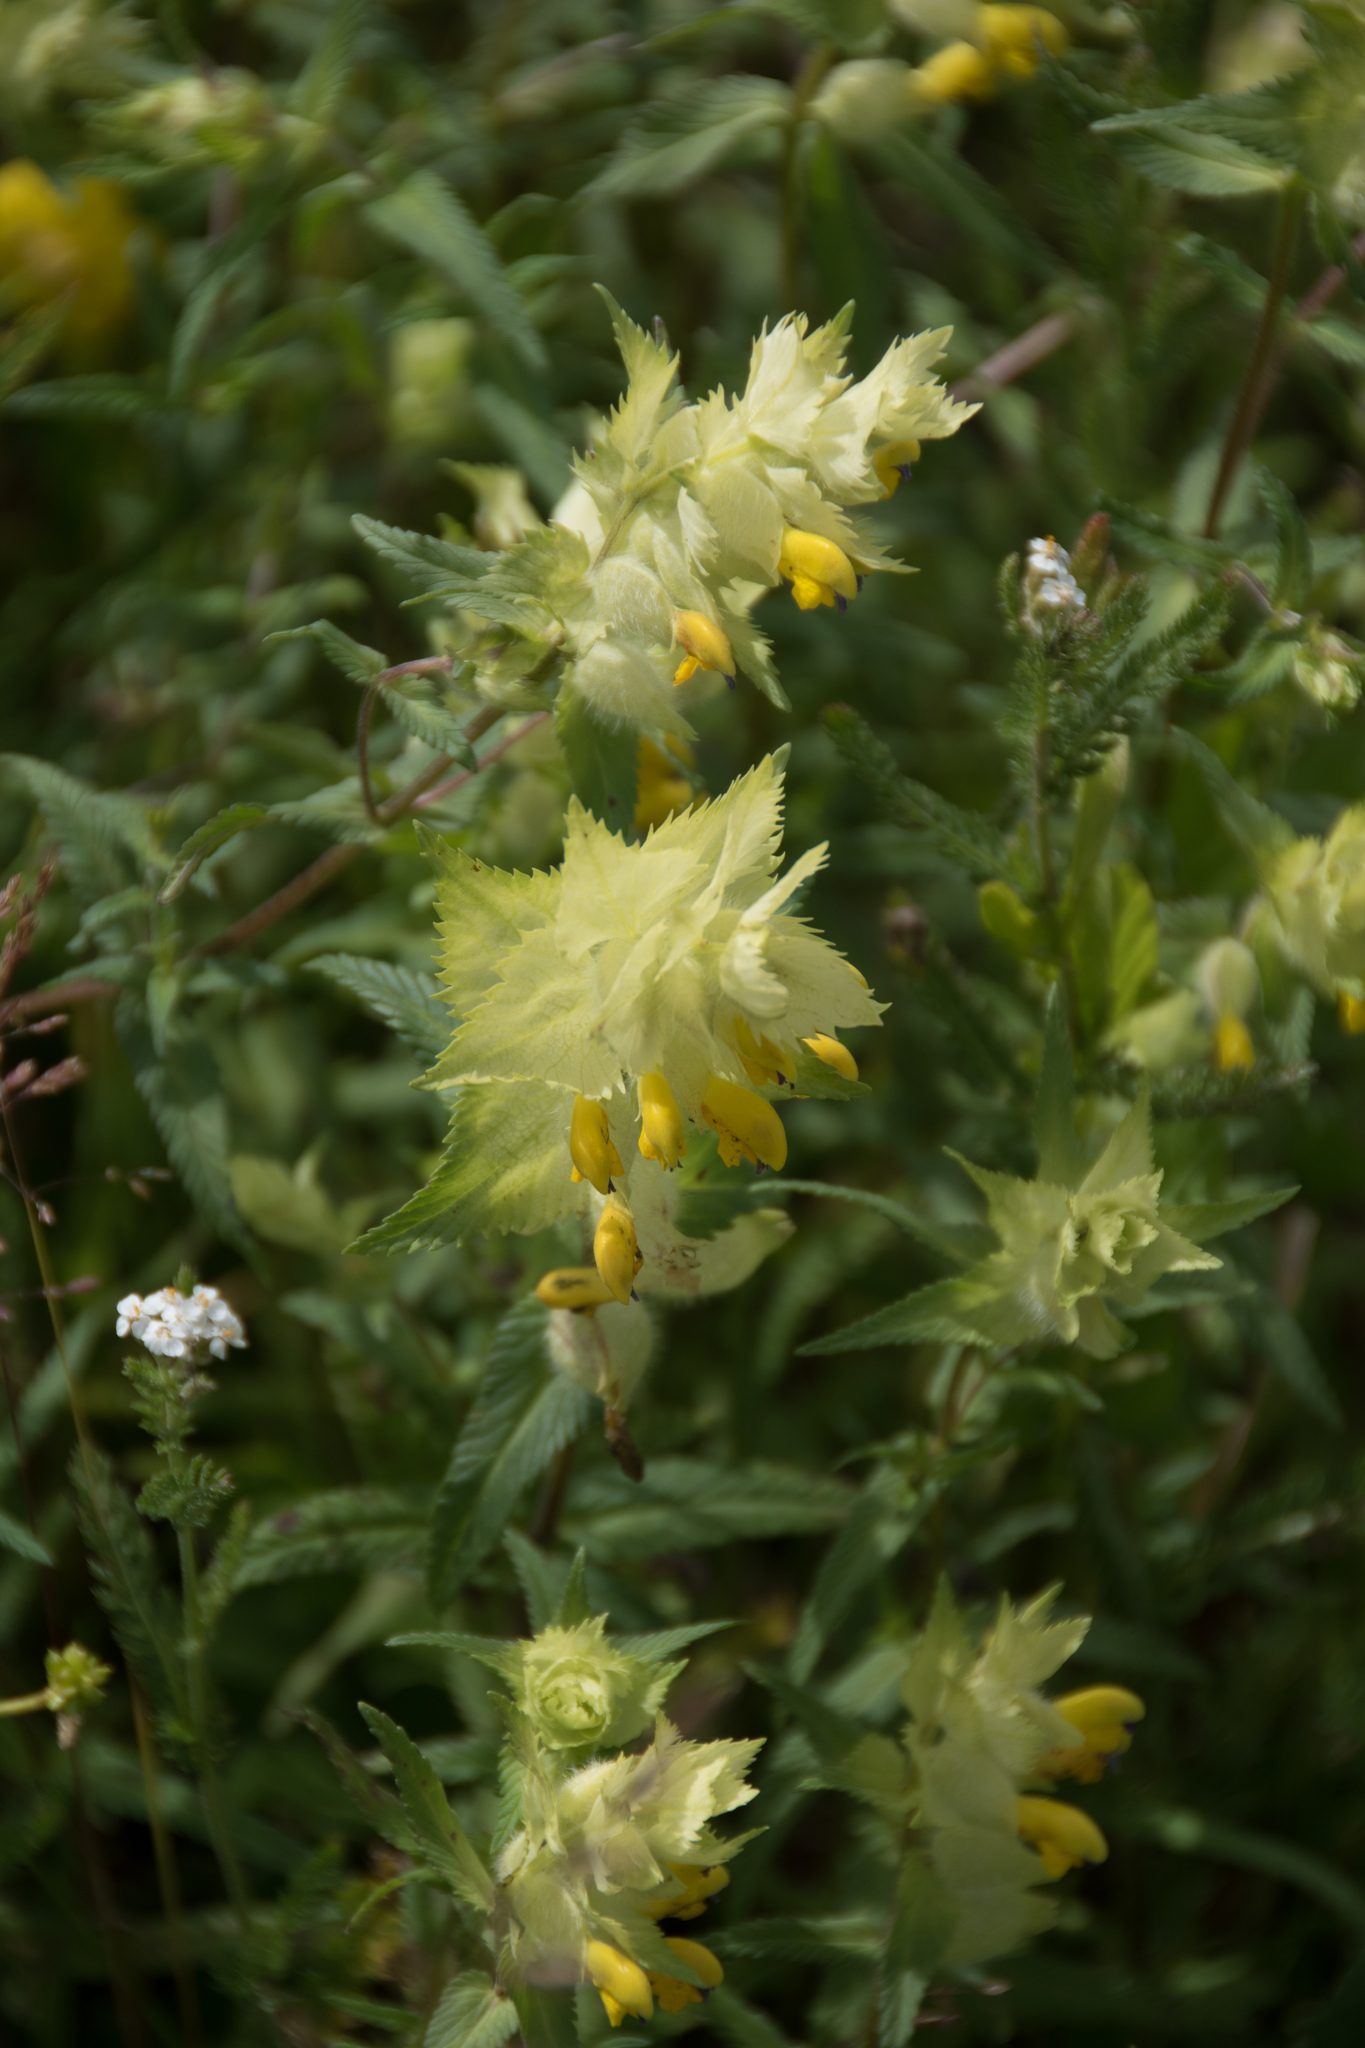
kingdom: Plantae
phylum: Tracheophyta
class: Magnoliopsida
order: Lamiales
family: Orobanchaceae
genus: Rhinanthus
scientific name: Rhinanthus alectorolophus
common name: Greater yellow-rattle
